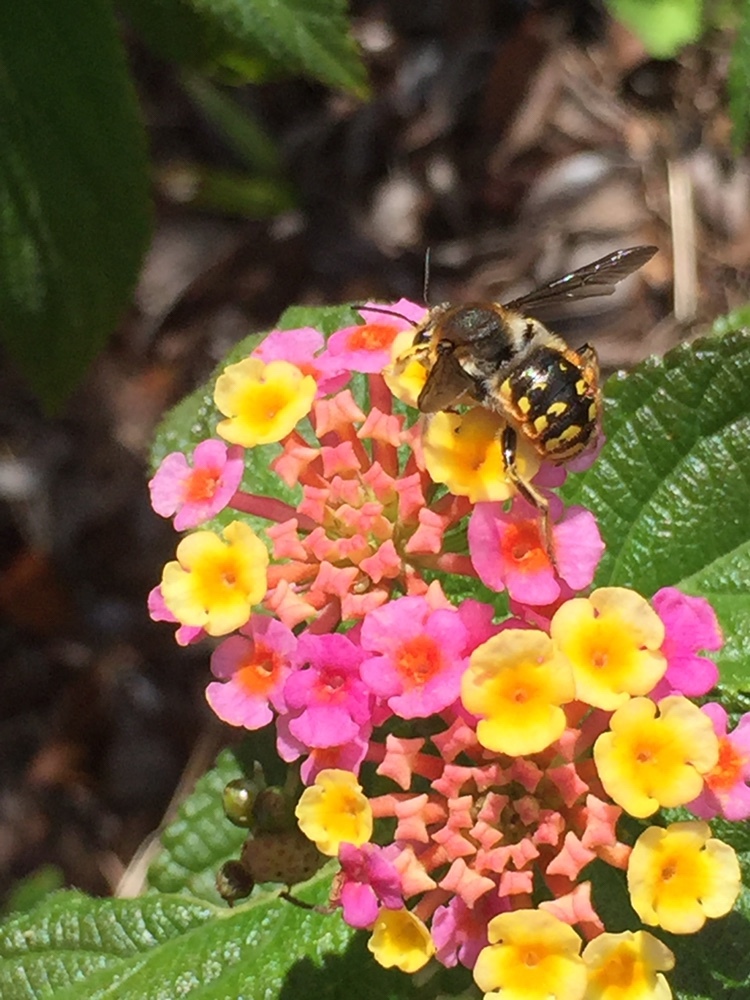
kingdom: Animalia
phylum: Arthropoda
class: Insecta
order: Hymenoptera
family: Megachilidae
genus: Anthidium
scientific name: Anthidium manicatum
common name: Wool carder bee
